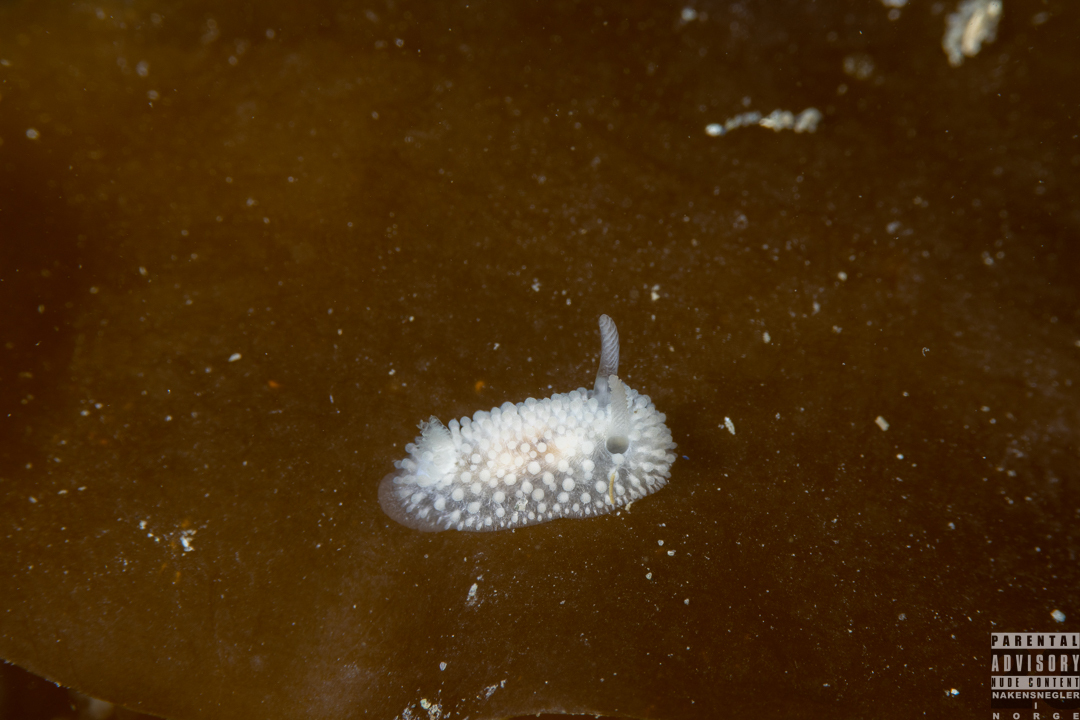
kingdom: Animalia
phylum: Mollusca
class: Gastropoda
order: Nudibranchia
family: Onchidorididae
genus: Onchidoris
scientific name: Onchidoris muricata
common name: Rough doris
